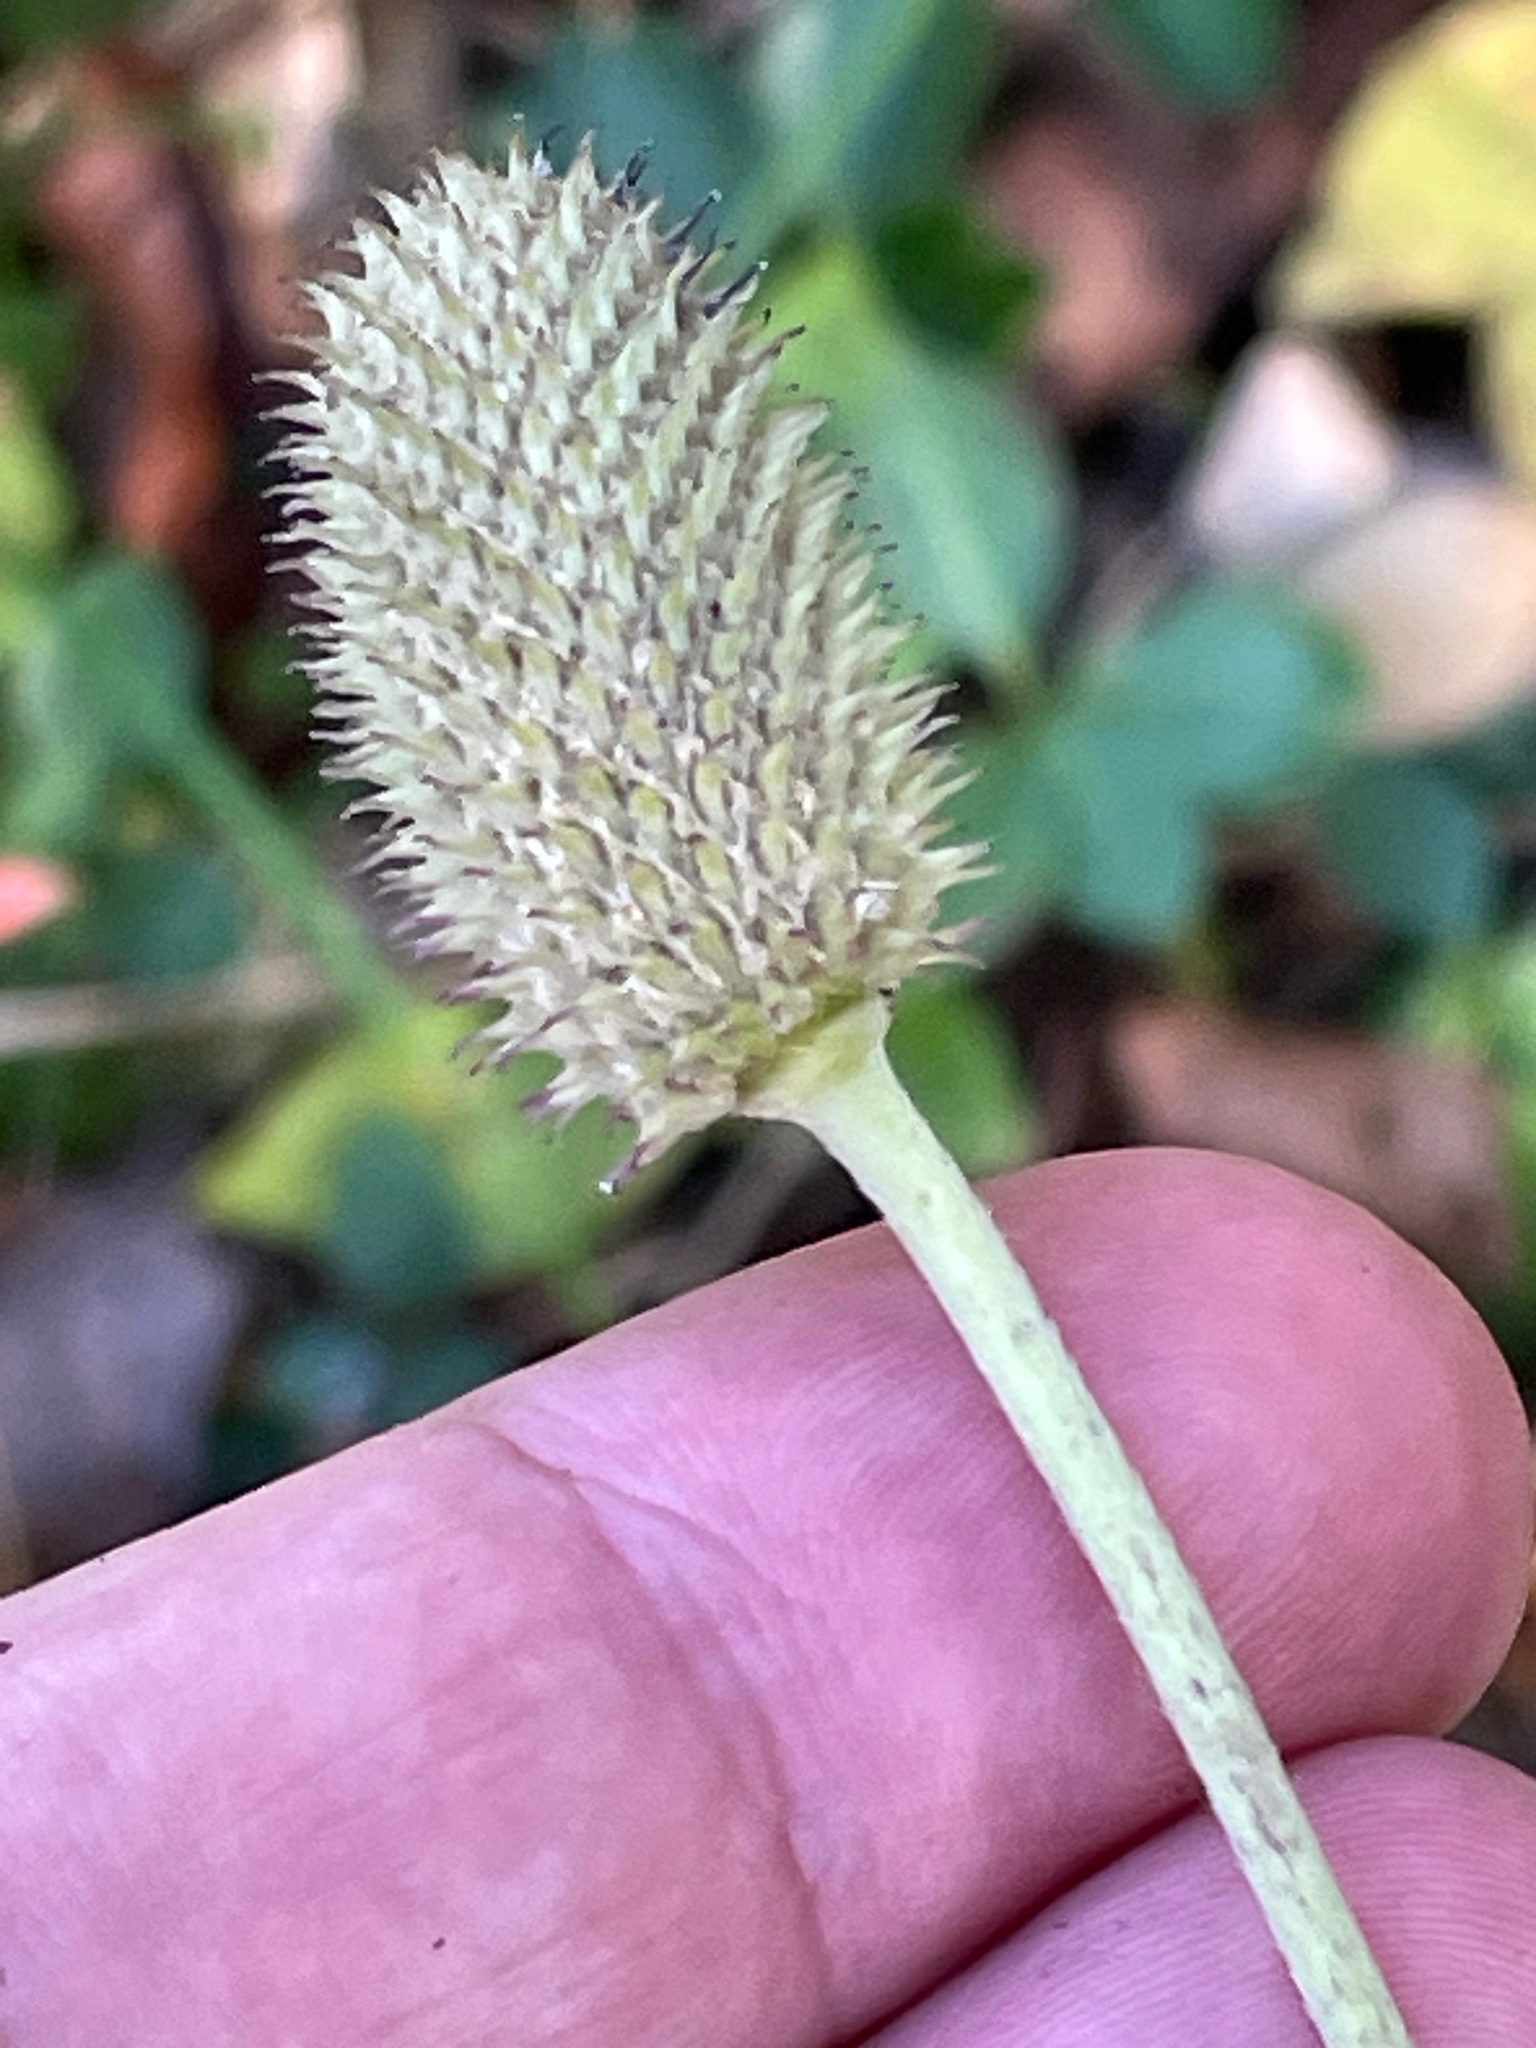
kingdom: Plantae
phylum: Tracheophyta
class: Magnoliopsida
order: Ranunculales
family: Ranunculaceae
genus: Anemone
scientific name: Anemone virginiana
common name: Tall anemone
